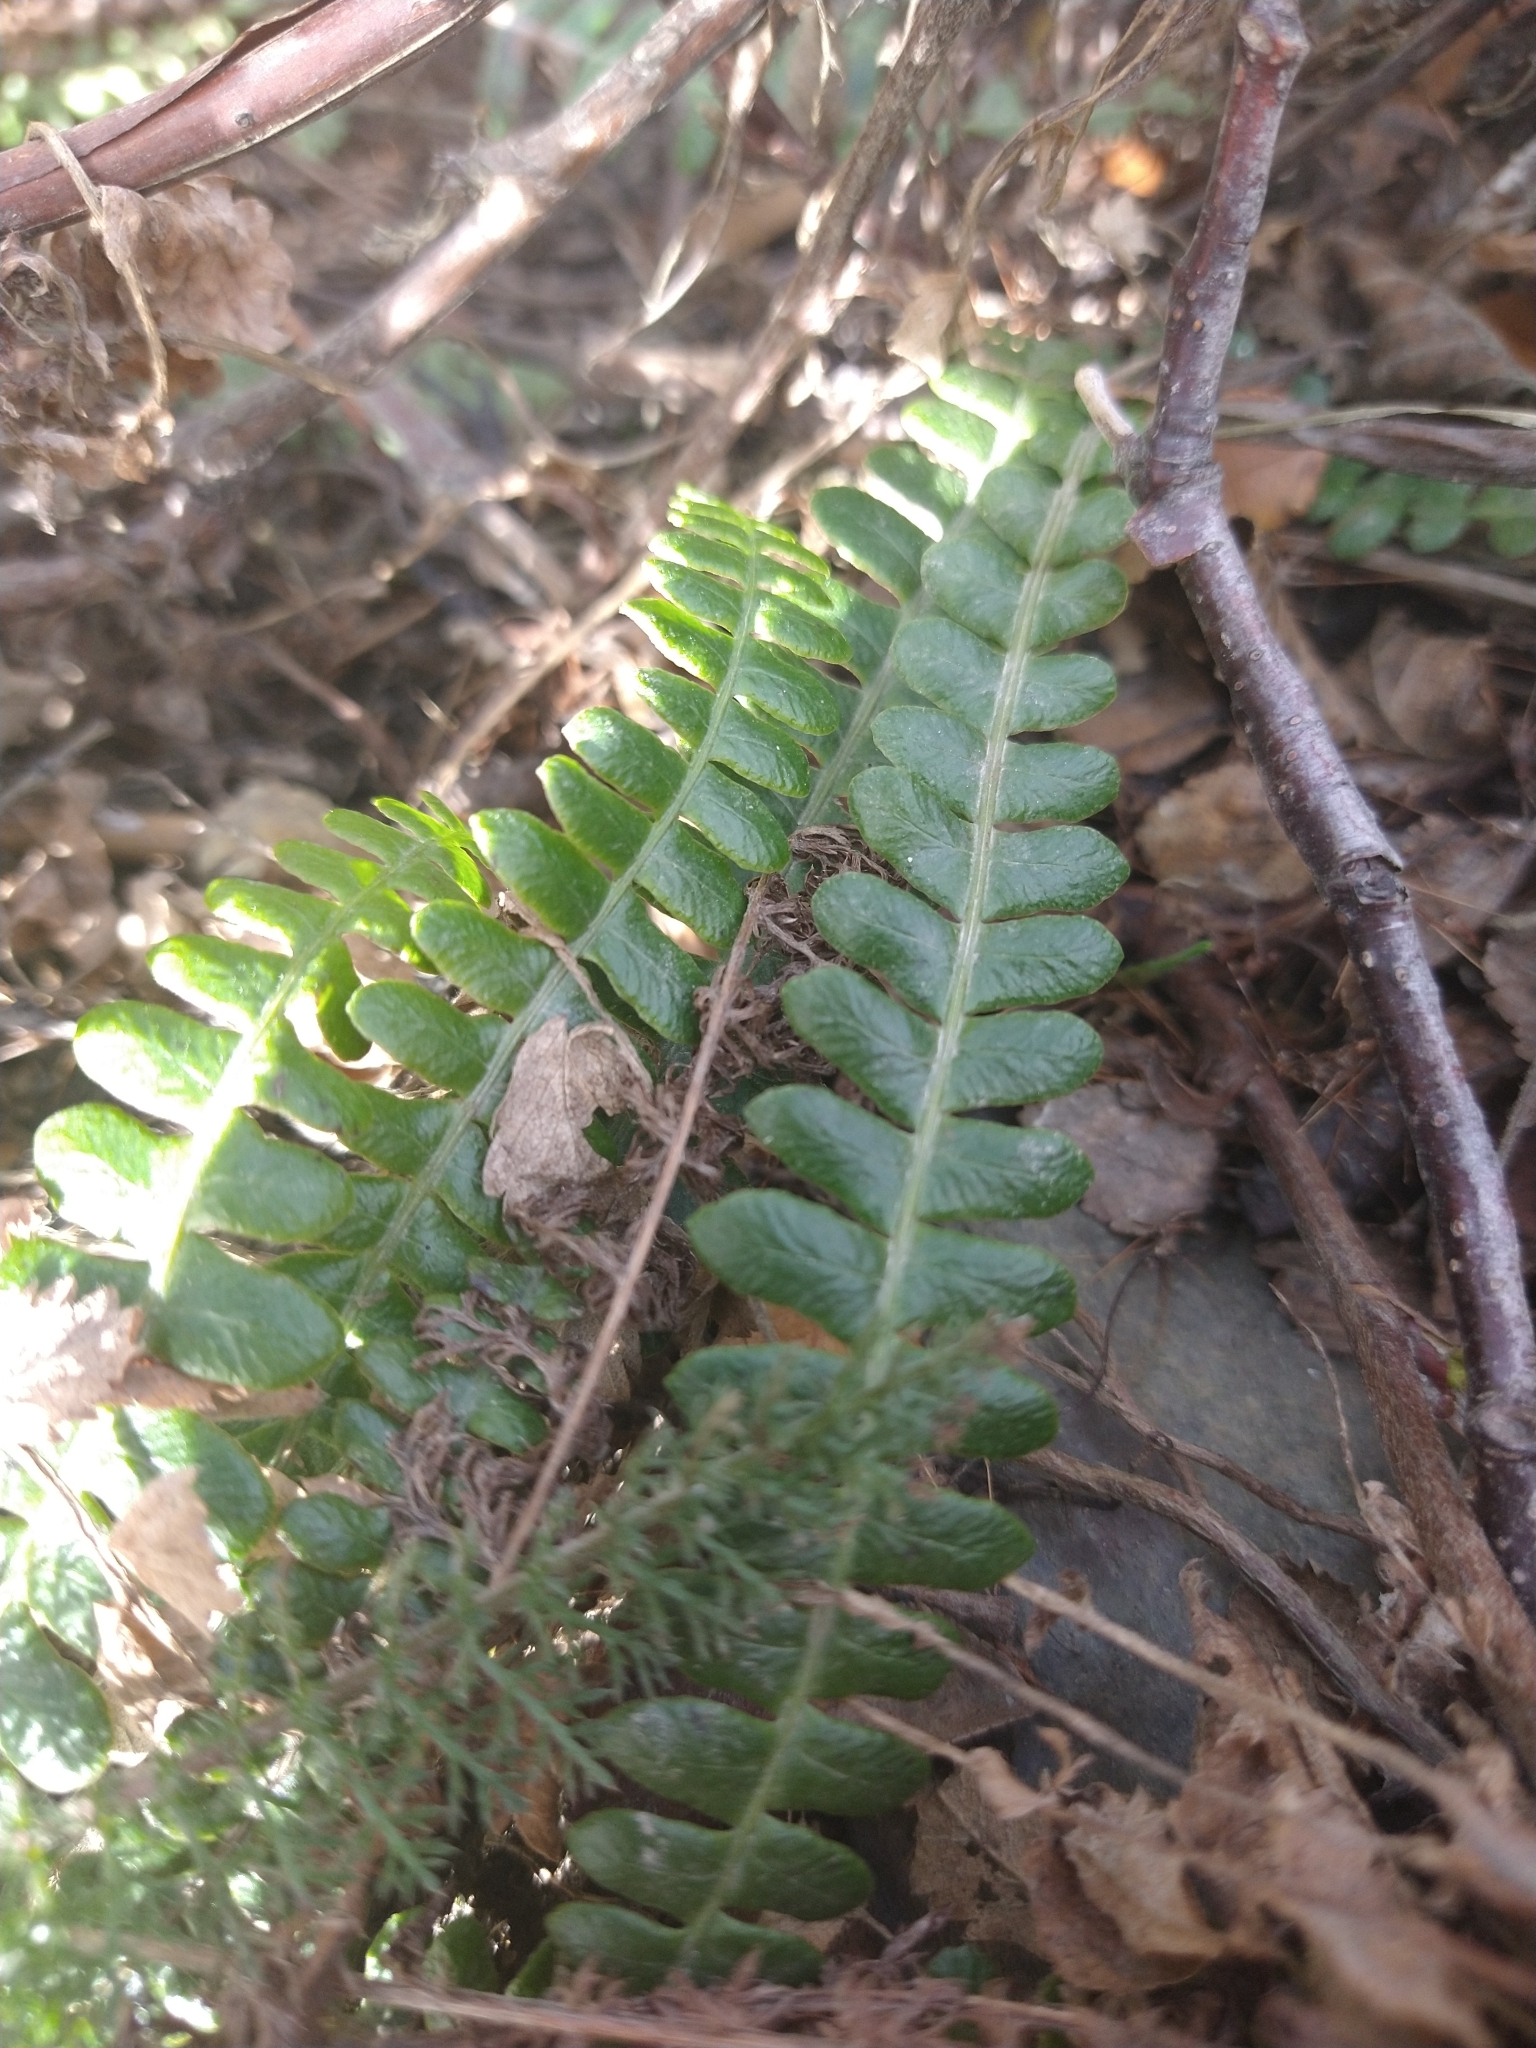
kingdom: Plantae
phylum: Tracheophyta
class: Polypodiopsida
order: Polypodiales
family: Blechnaceae
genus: Austroblechnum
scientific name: Austroblechnum penna-marina
